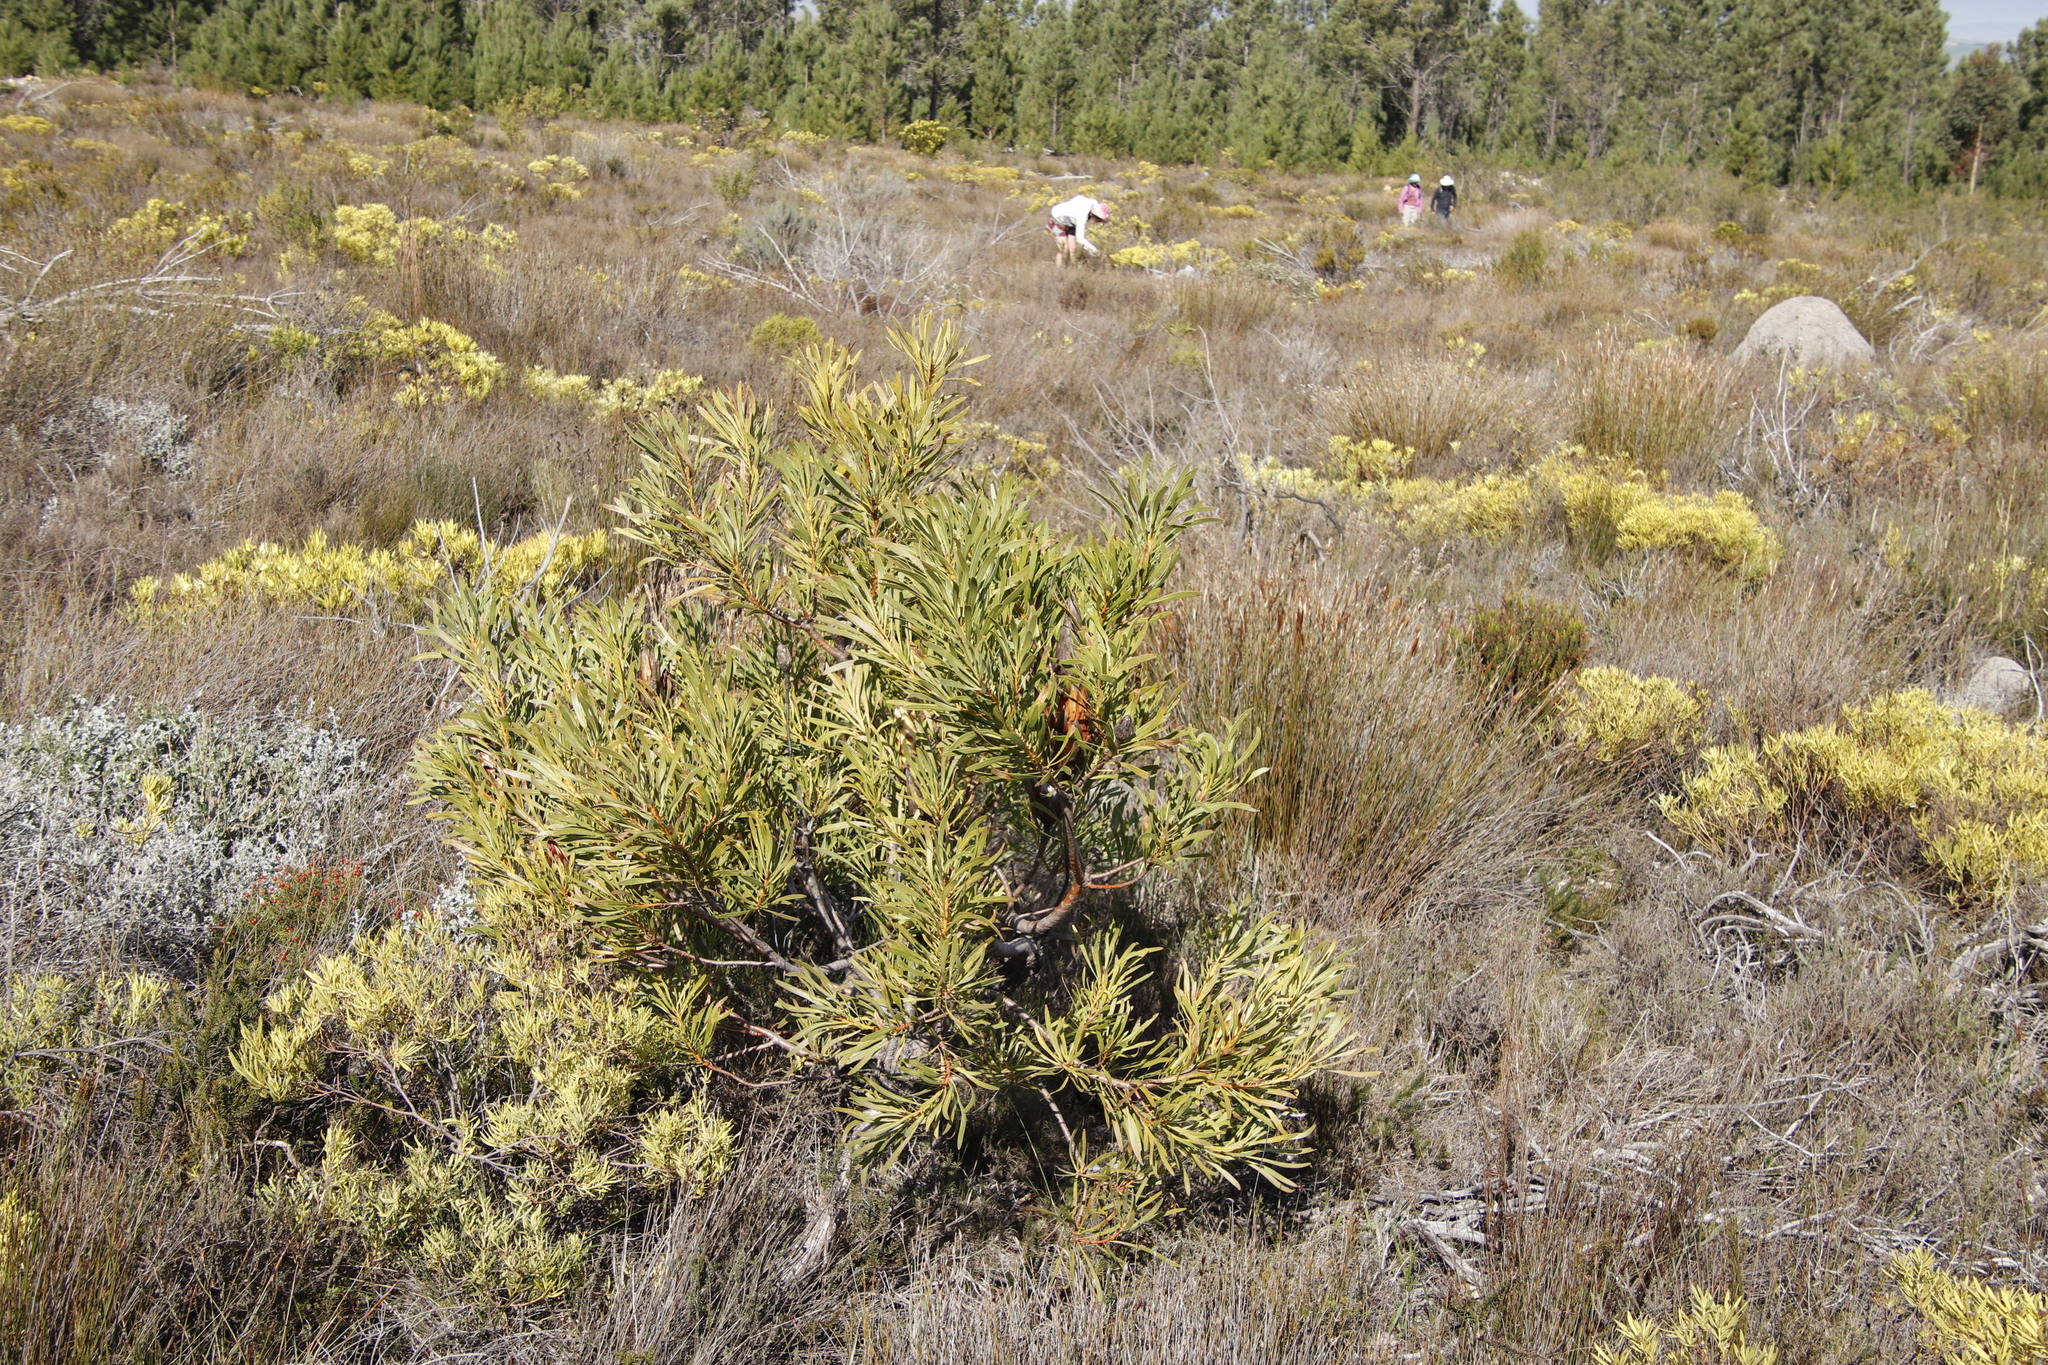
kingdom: Plantae
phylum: Tracheophyta
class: Magnoliopsida
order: Proteales
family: Proteaceae
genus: Protea
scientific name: Protea repens
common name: Sugarbush
